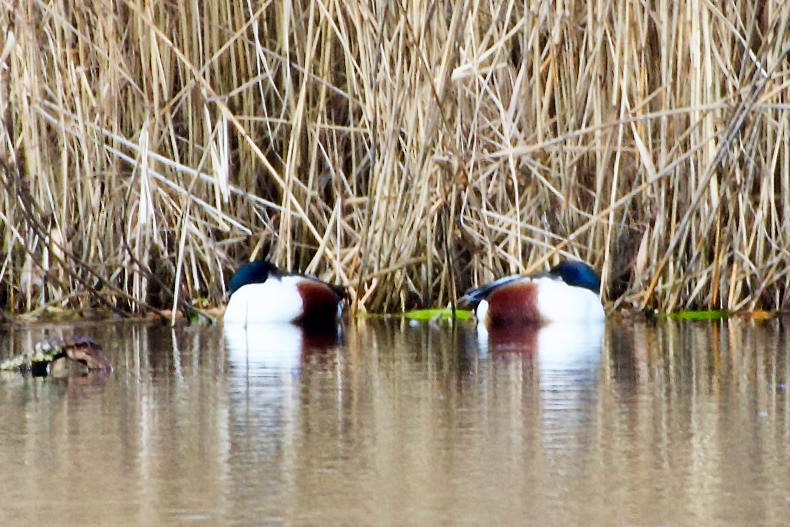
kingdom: Animalia
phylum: Chordata
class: Aves
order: Anseriformes
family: Anatidae
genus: Spatula
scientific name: Spatula clypeata
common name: Northern shoveler
